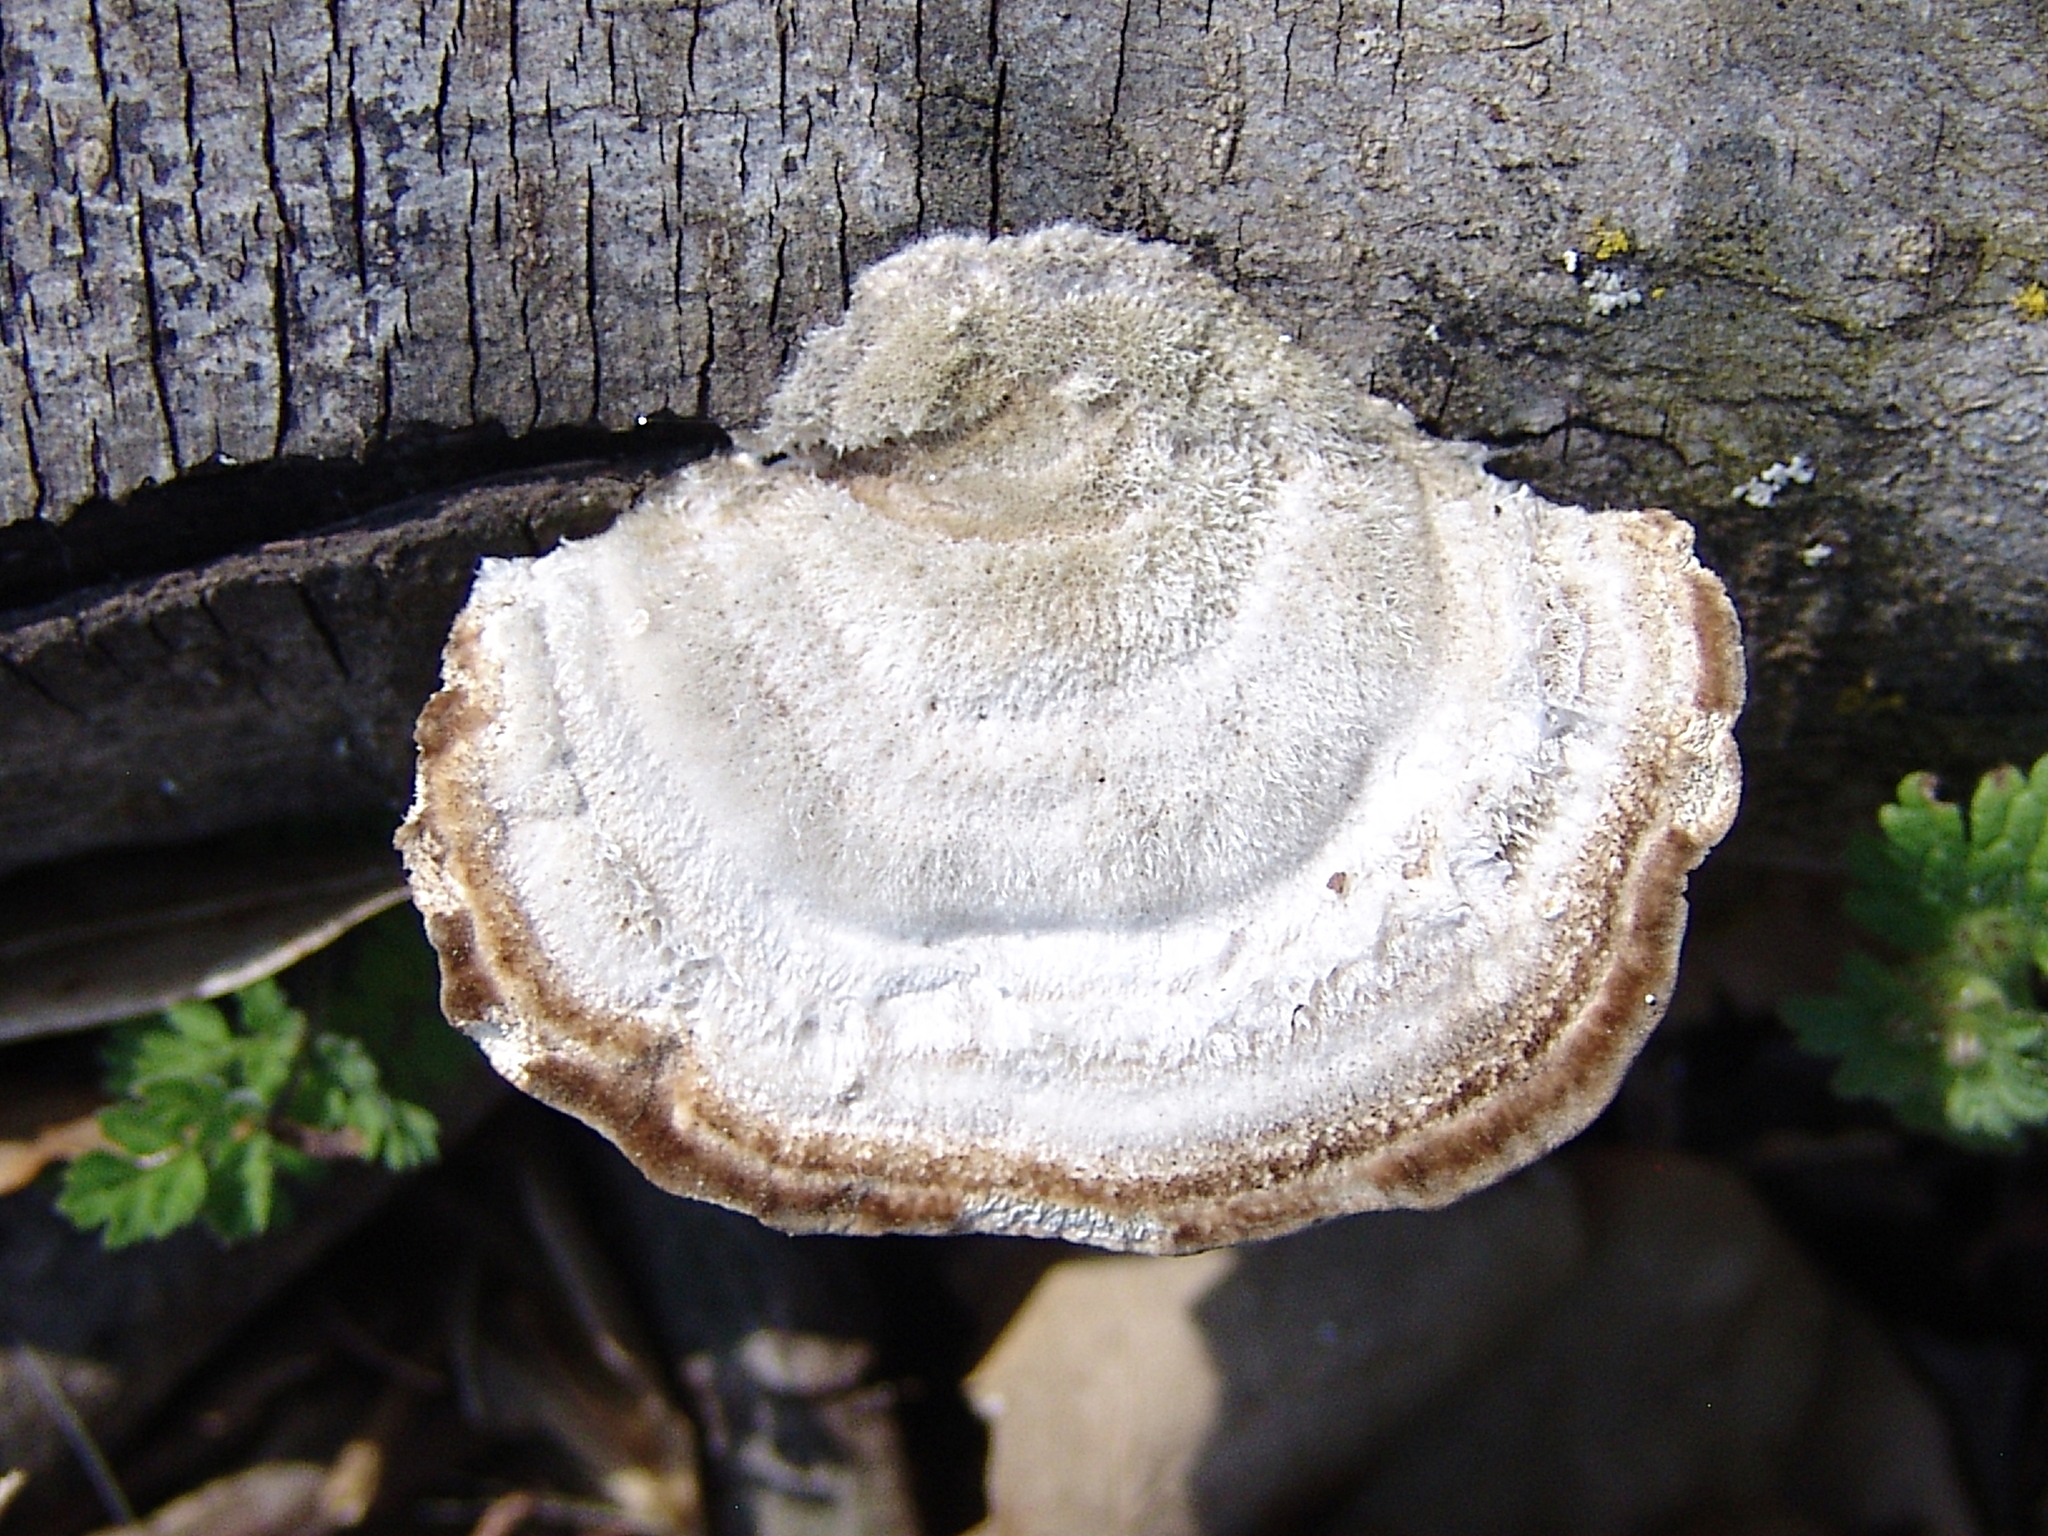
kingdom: Fungi
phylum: Basidiomycota
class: Agaricomycetes
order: Polyporales
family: Polyporaceae
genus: Trametes
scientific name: Trametes hirsuta
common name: Hairy bracket
